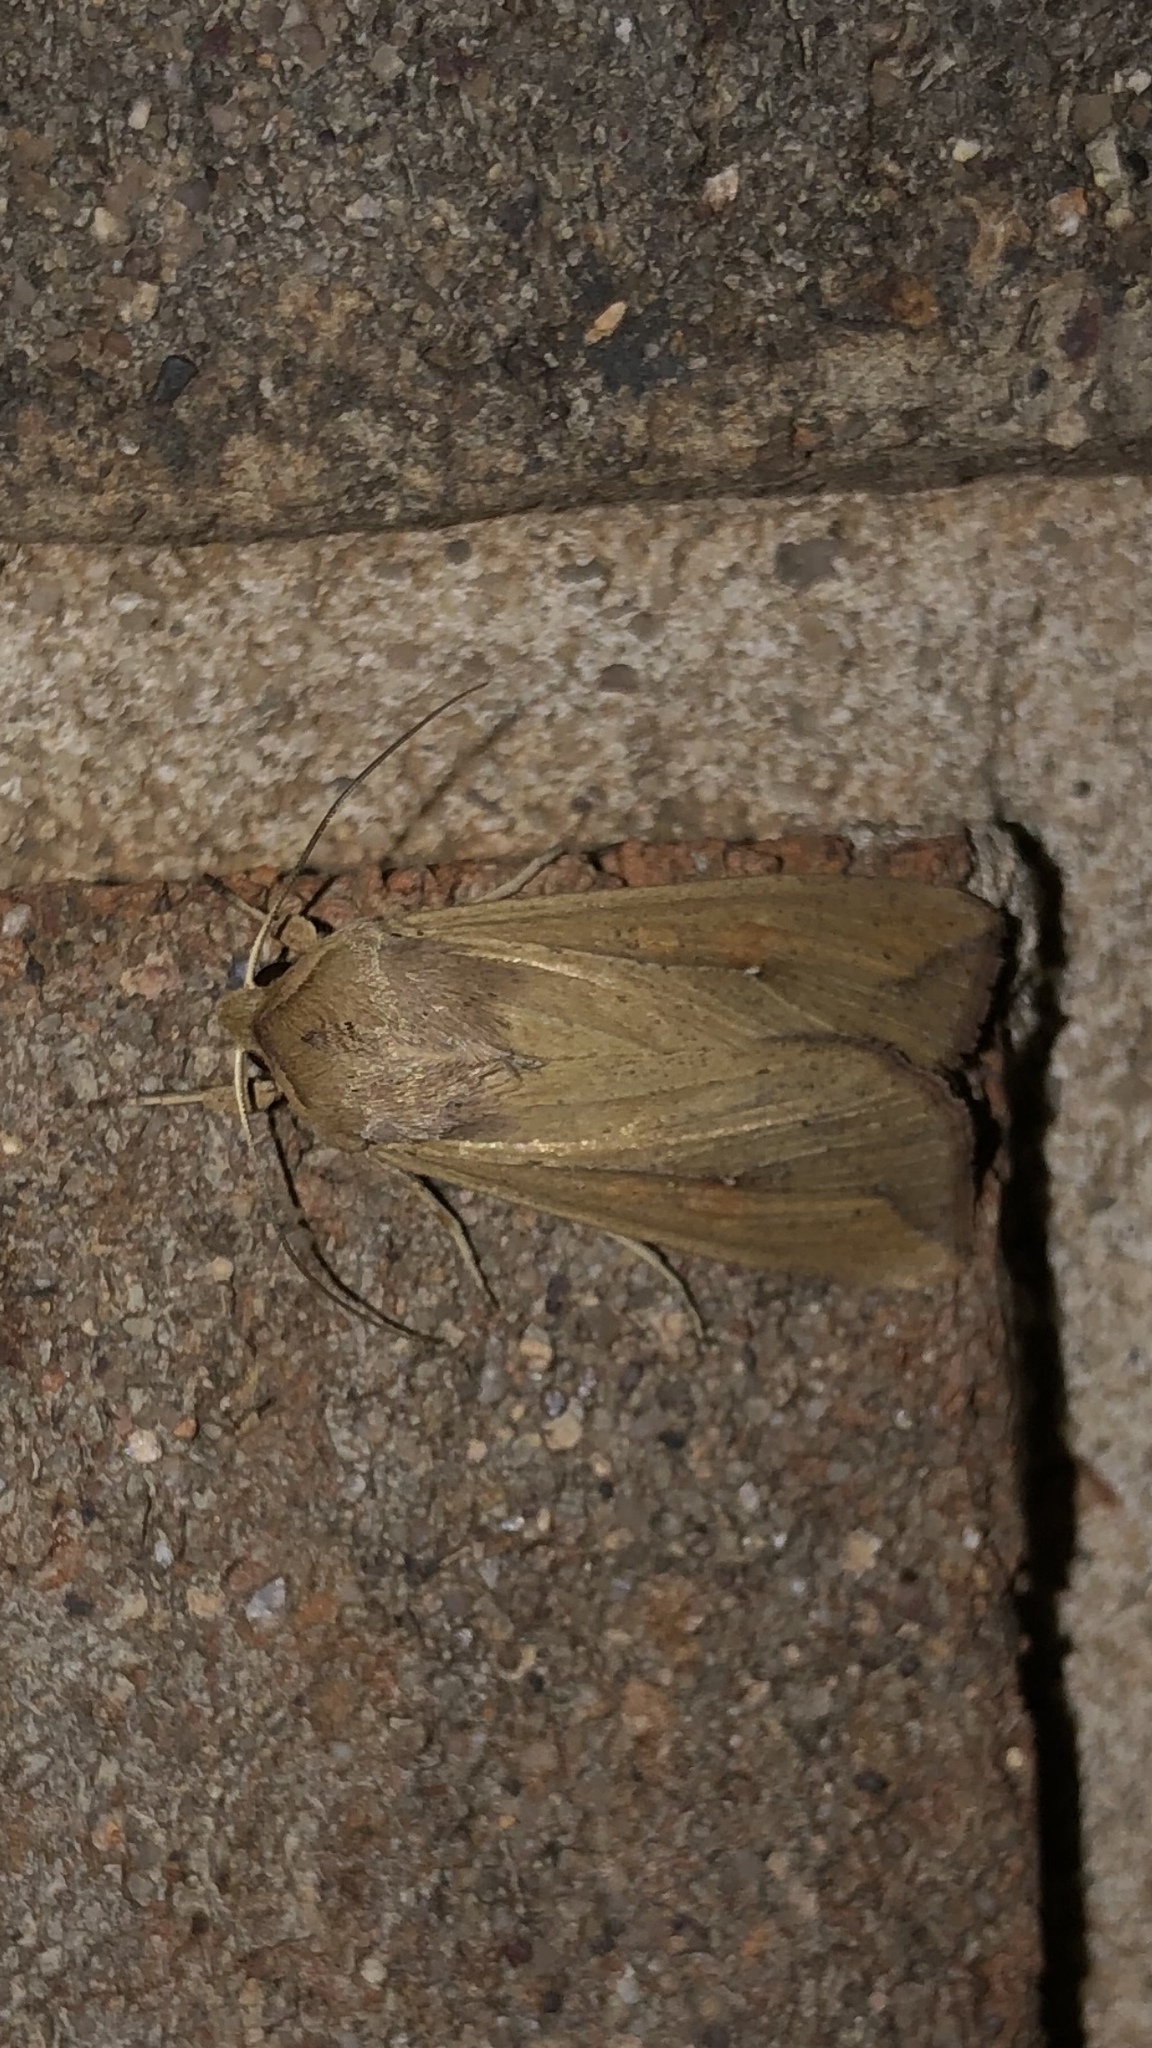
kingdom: Animalia
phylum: Arthropoda
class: Insecta
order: Lepidoptera
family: Noctuidae
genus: Mythimna
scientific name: Mythimna unipuncta
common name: White-speck
